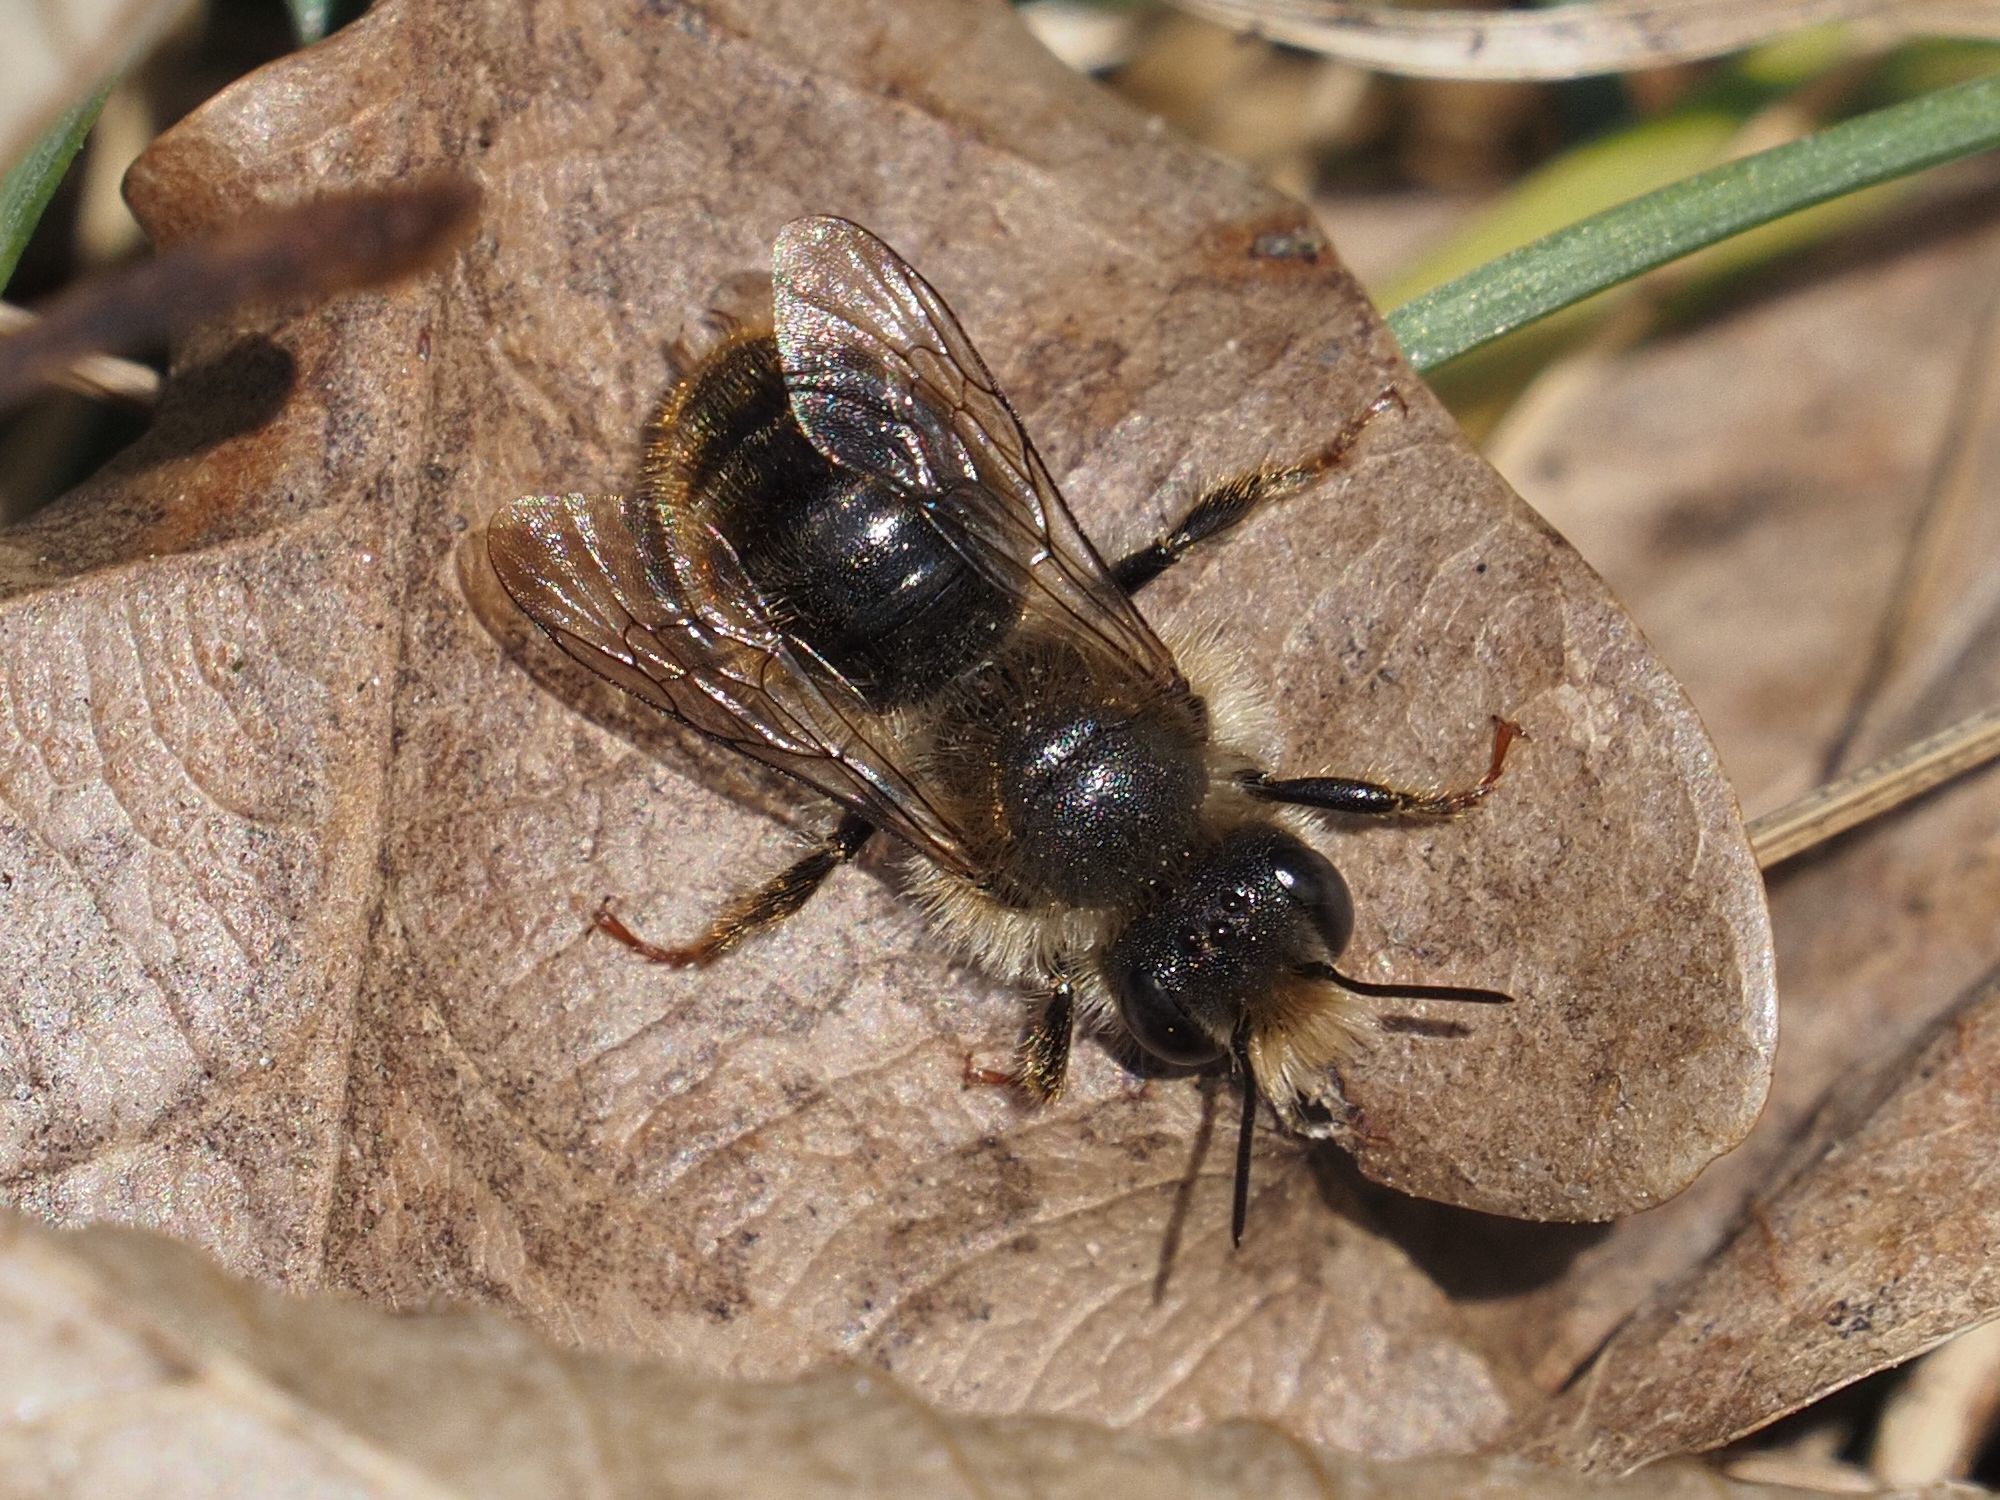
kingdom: Animalia
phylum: Arthropoda
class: Insecta
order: Hymenoptera
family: Megachilidae
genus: Osmia
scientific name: Osmia bicolor
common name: Red-tailed mason bee
